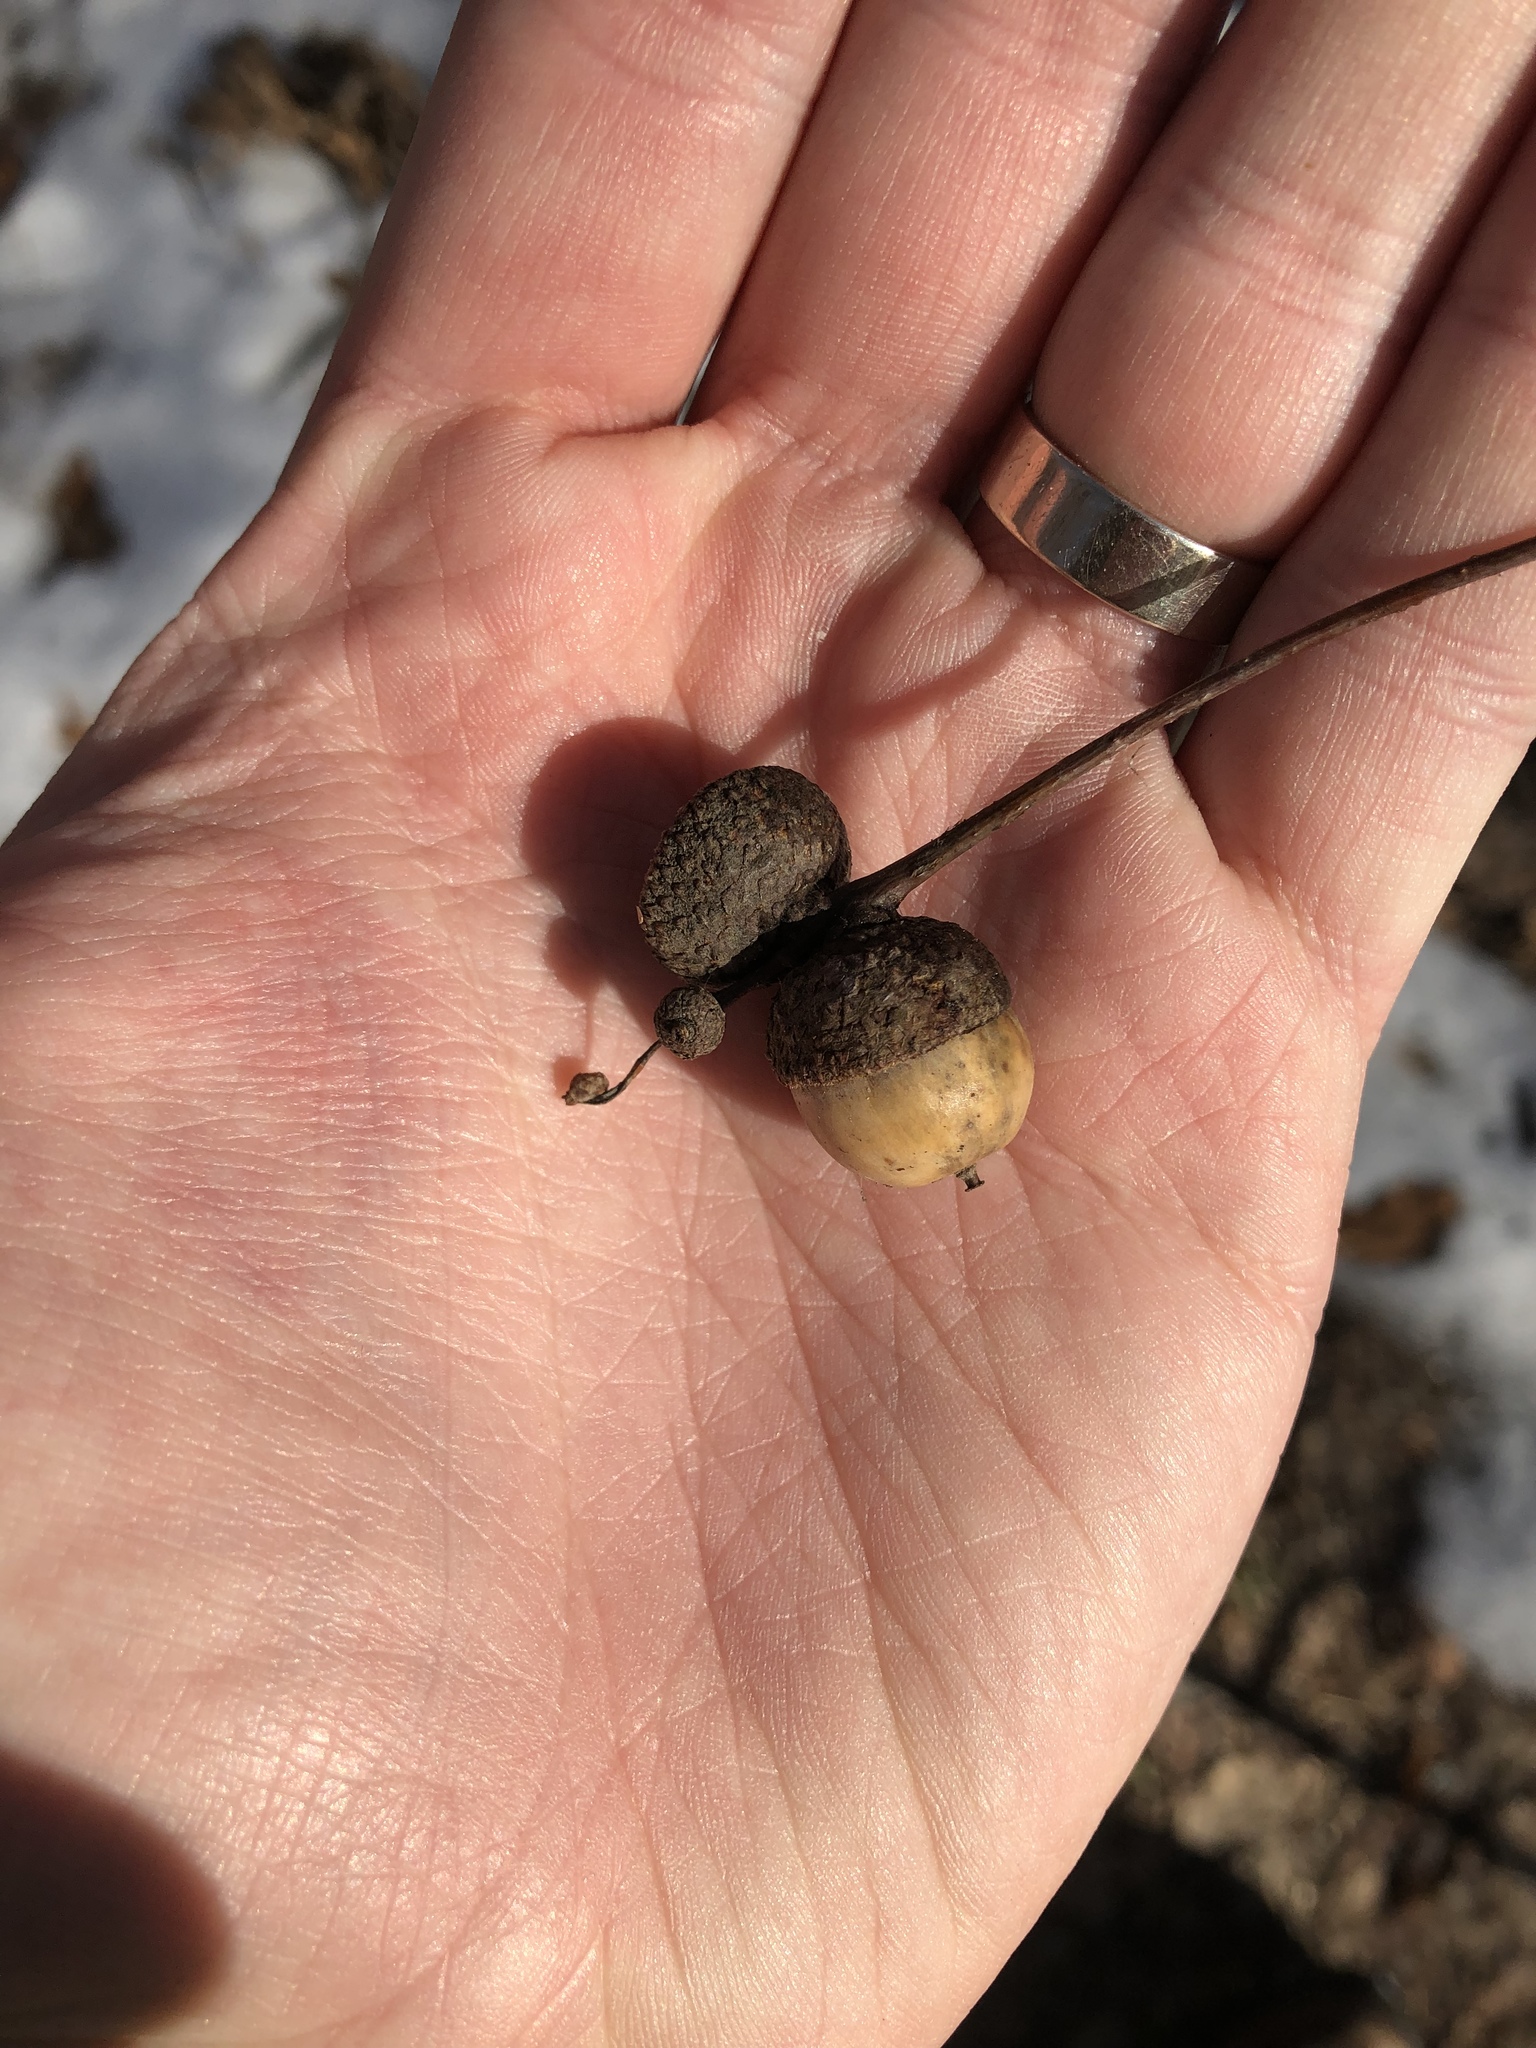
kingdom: Plantae
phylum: Tracheophyta
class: Magnoliopsida
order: Fagales
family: Fagaceae
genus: Quercus
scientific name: Quercus robur
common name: Pedunculate oak
